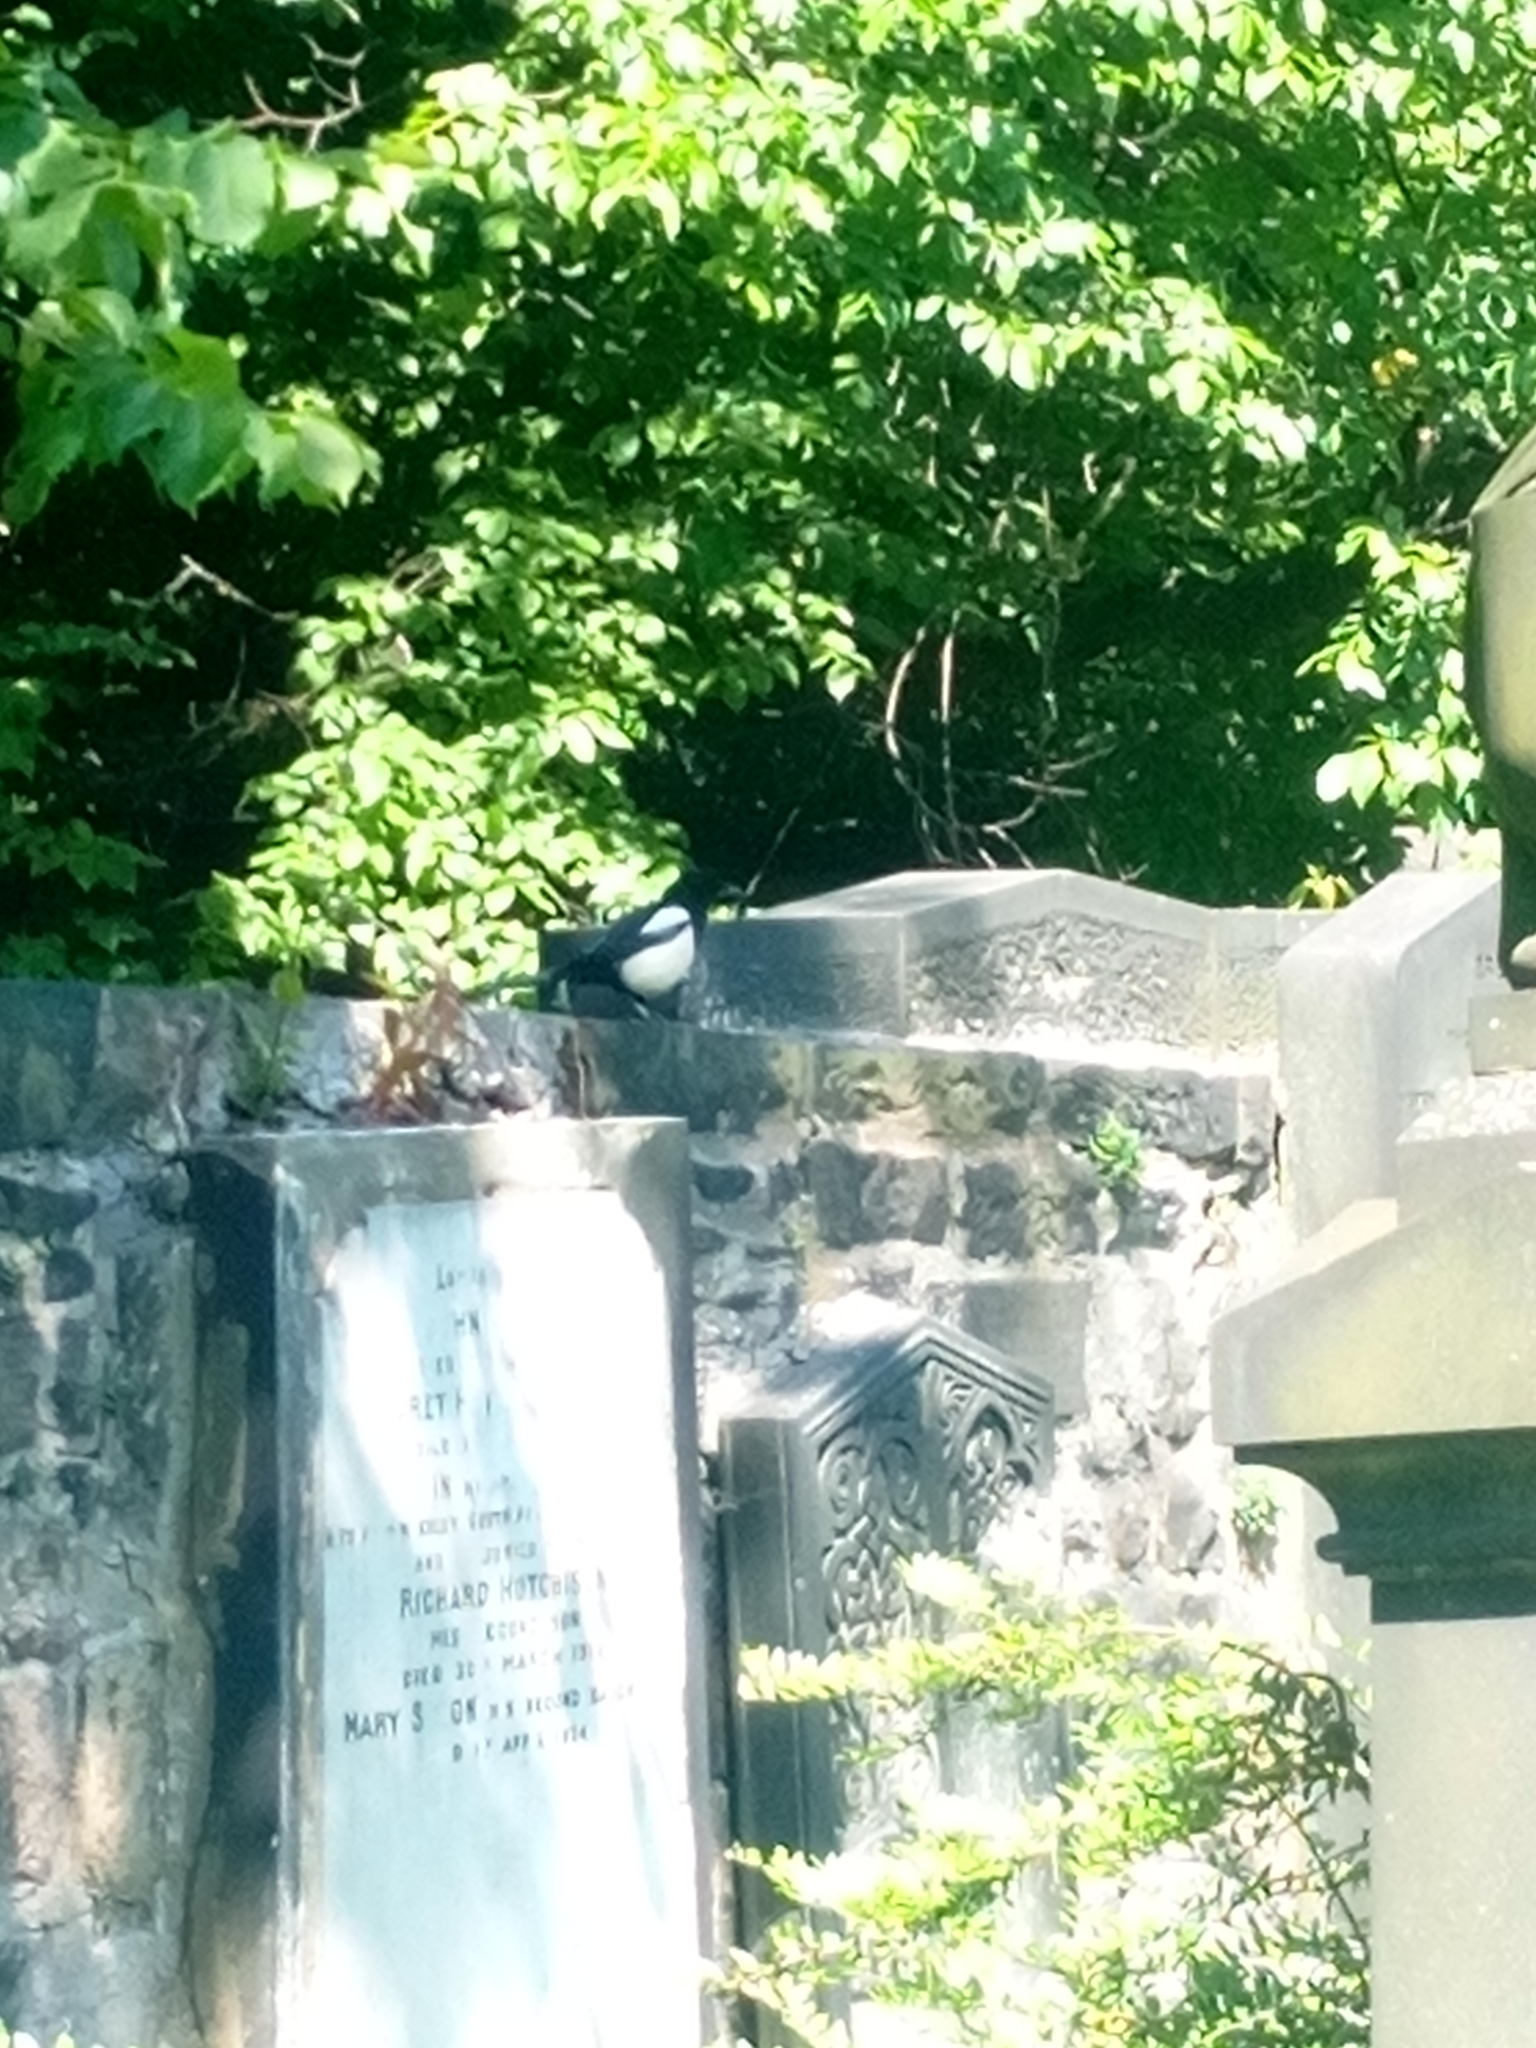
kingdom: Animalia
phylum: Chordata
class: Aves
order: Passeriformes
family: Corvidae
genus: Pica
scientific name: Pica pica
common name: Eurasian magpie
